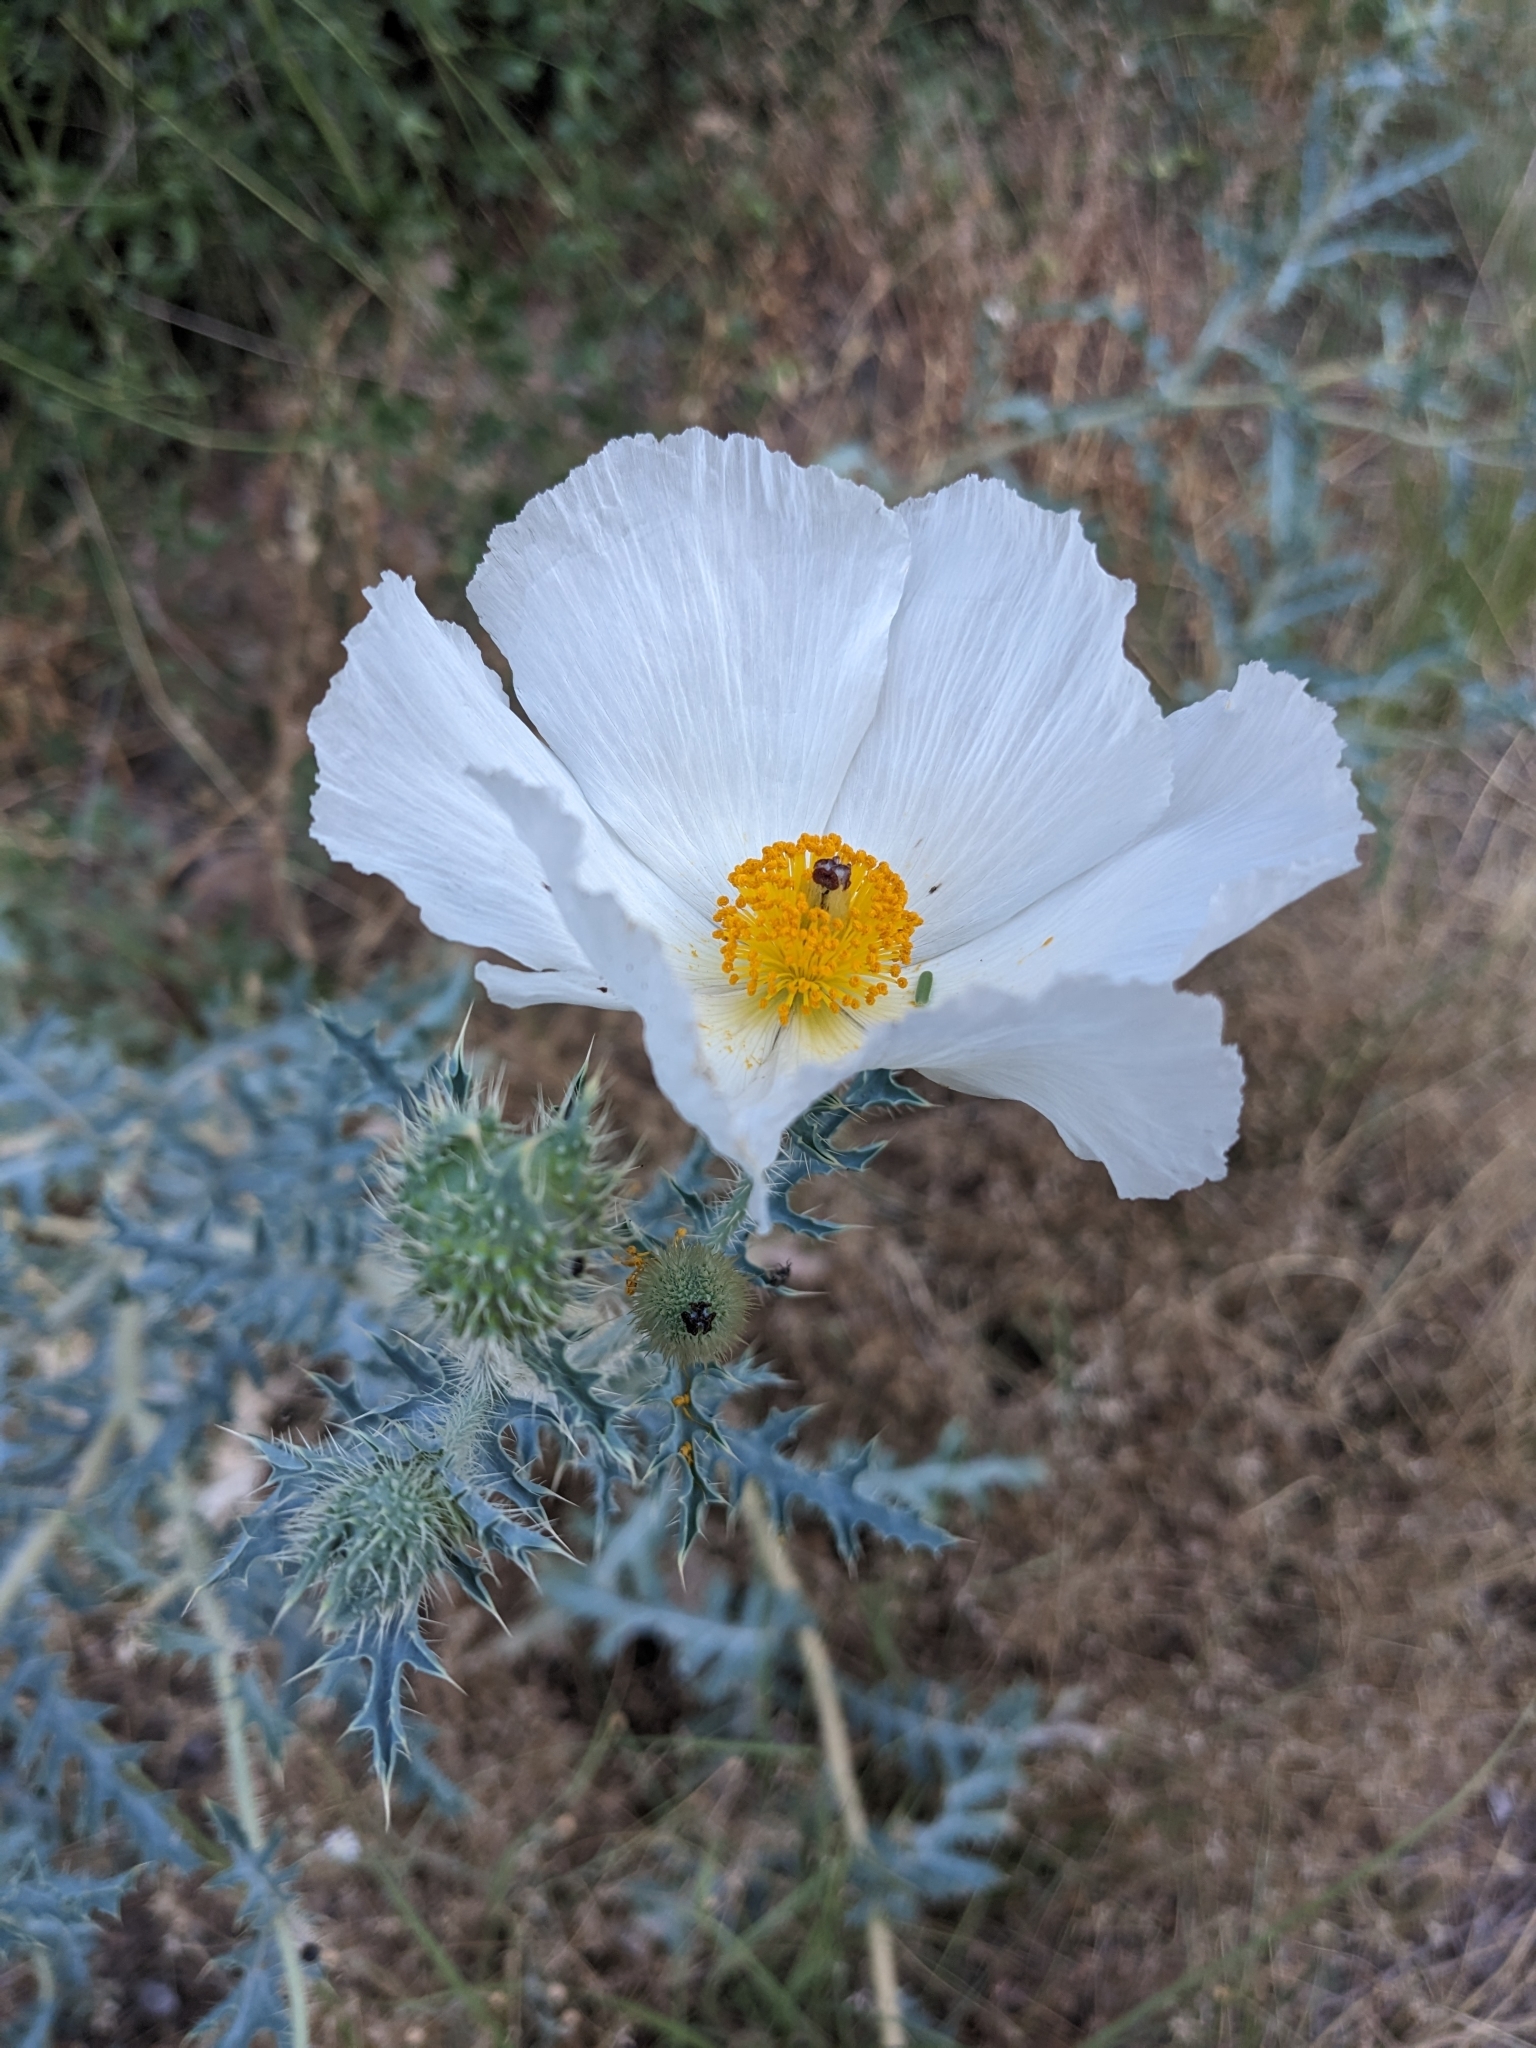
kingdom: Plantae
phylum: Tracheophyta
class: Magnoliopsida
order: Ranunculales
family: Papaveraceae
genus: Argemone
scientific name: Argemone pleiacantha
